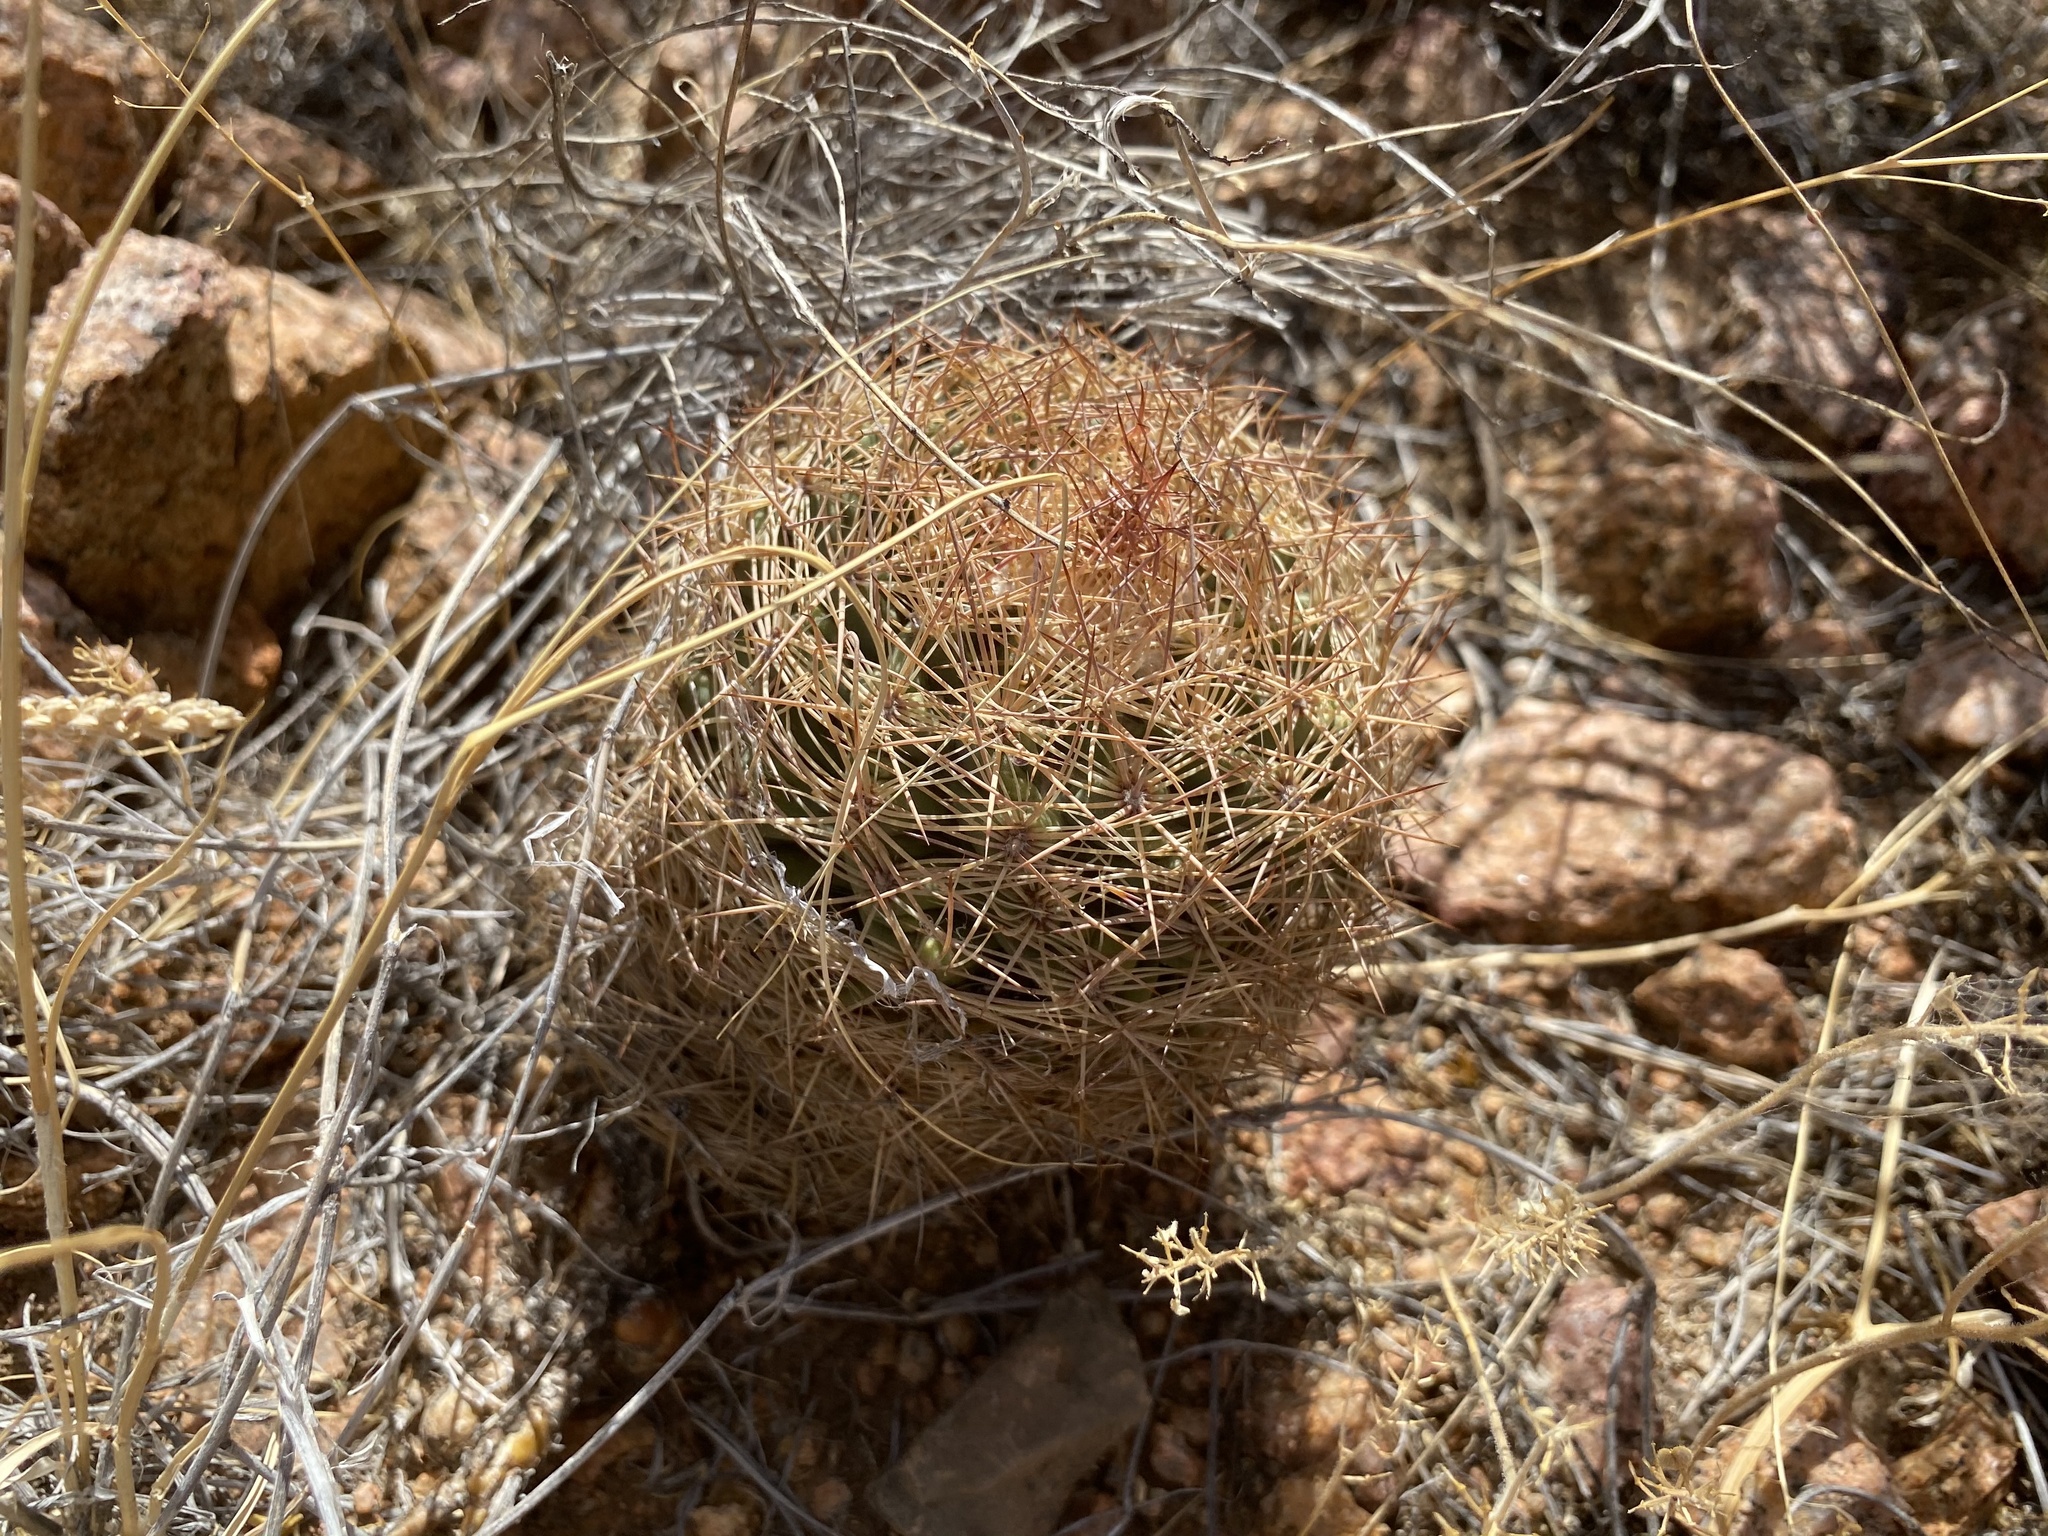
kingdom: Plantae
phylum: Tracheophyta
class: Magnoliopsida
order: Caryophyllales
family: Cactaceae
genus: Sclerocactus
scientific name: Sclerocactus intertextus
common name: White fish-hook cactus
